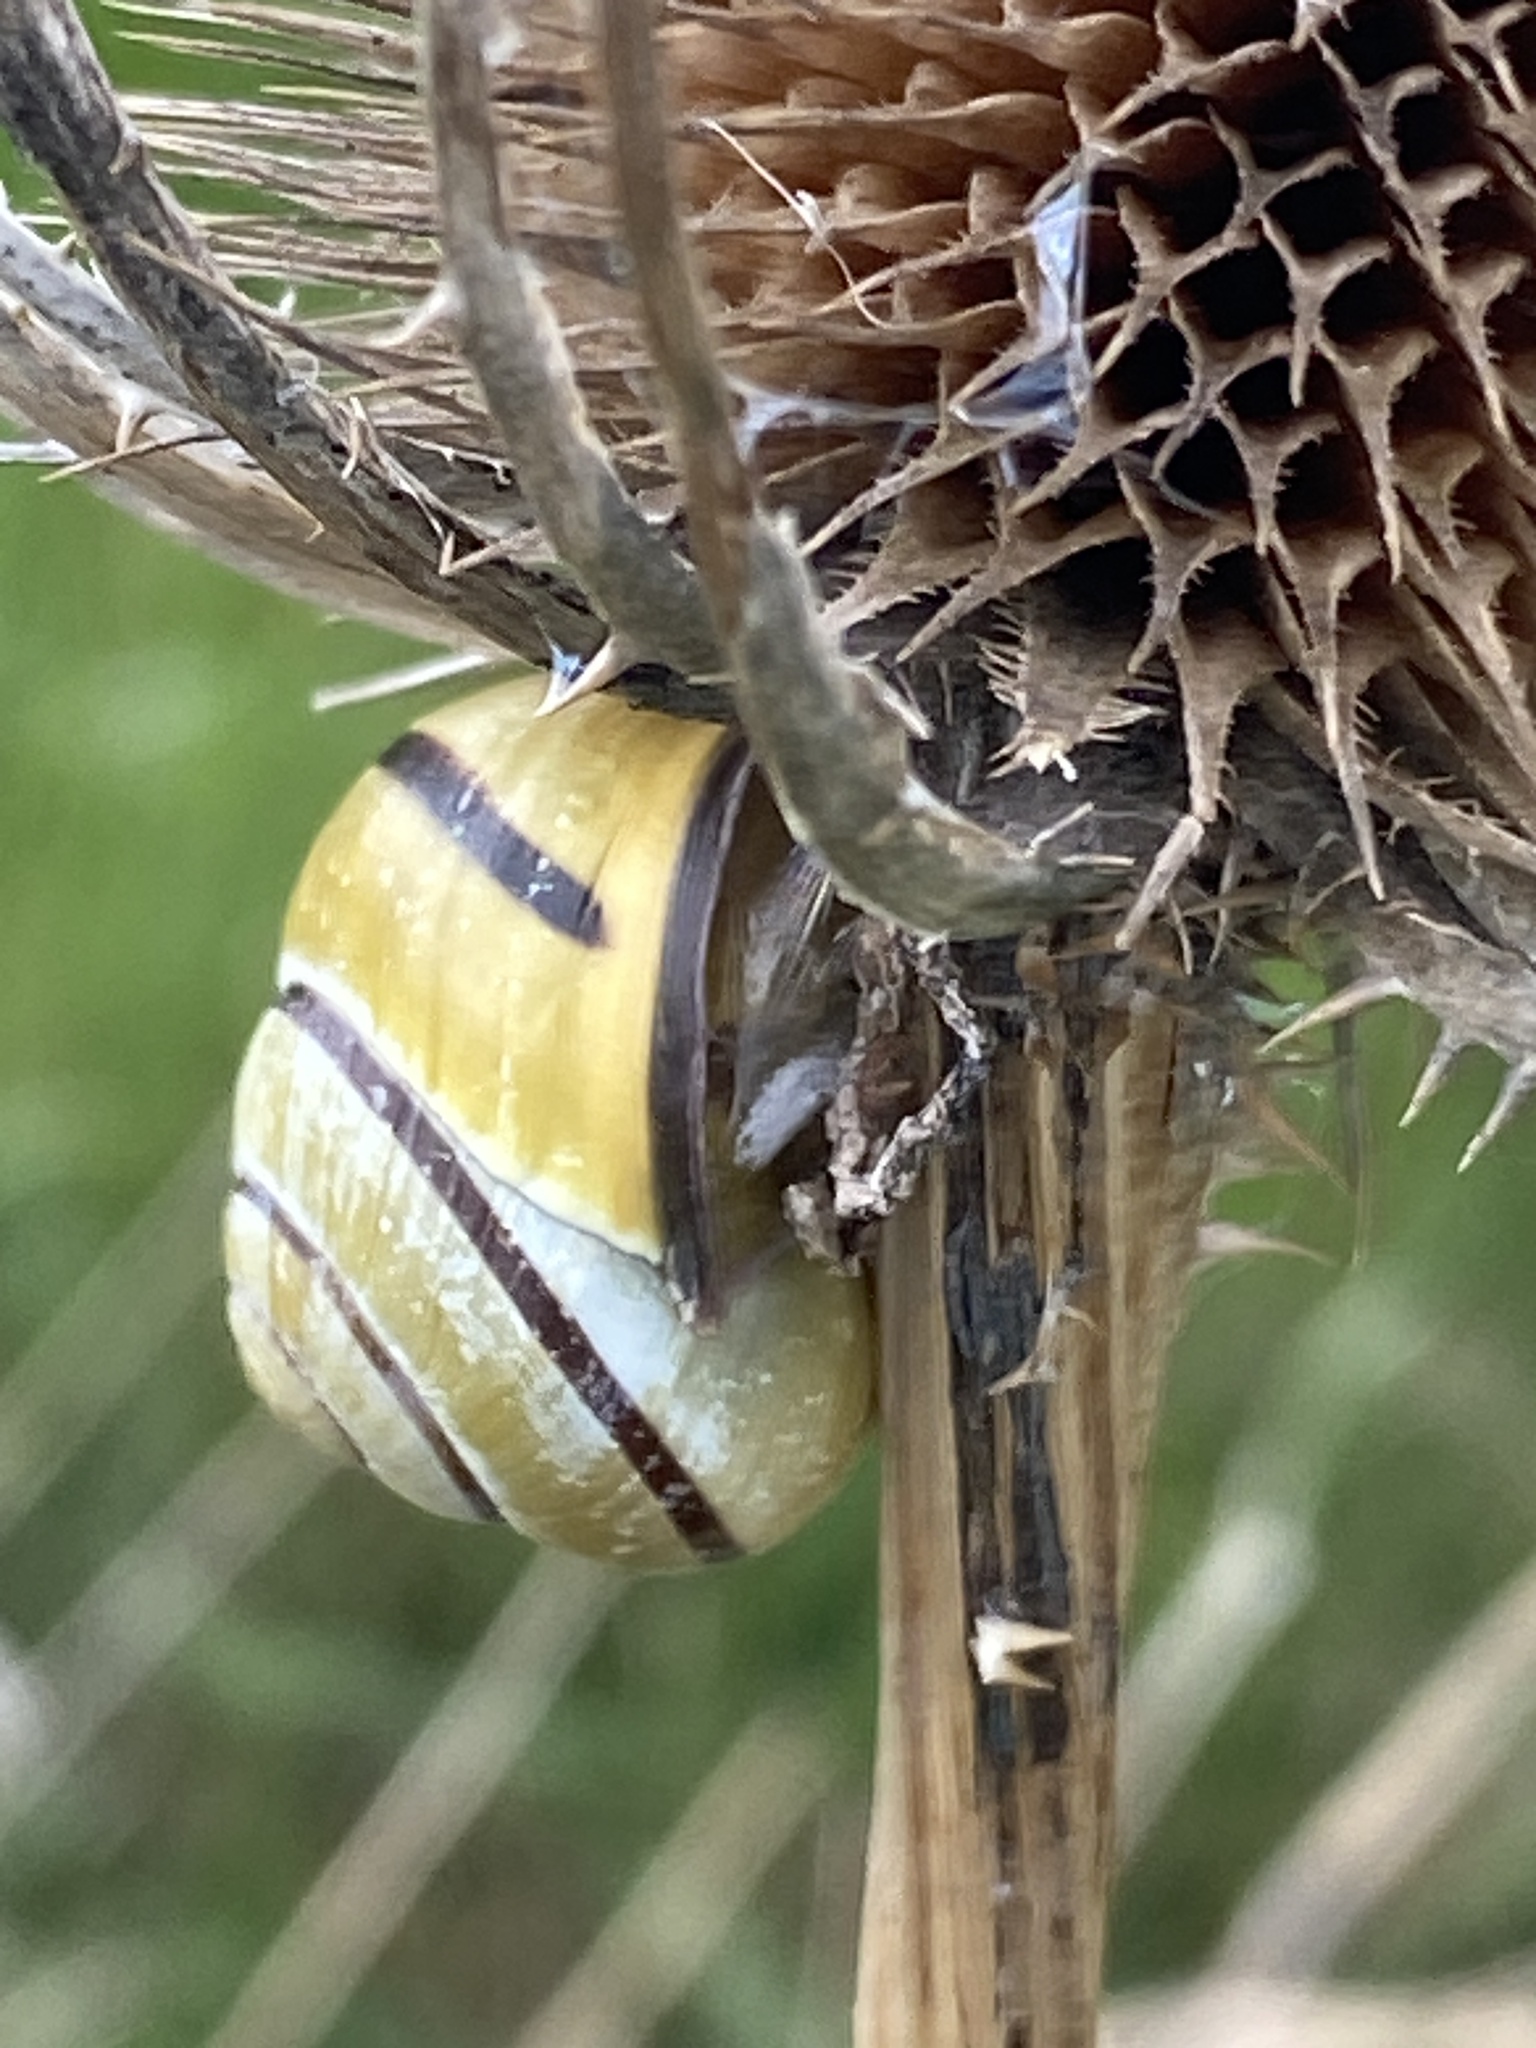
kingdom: Animalia
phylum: Mollusca
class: Gastropoda
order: Stylommatophora
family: Helicidae
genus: Cepaea
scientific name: Cepaea nemoralis
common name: Grovesnail
